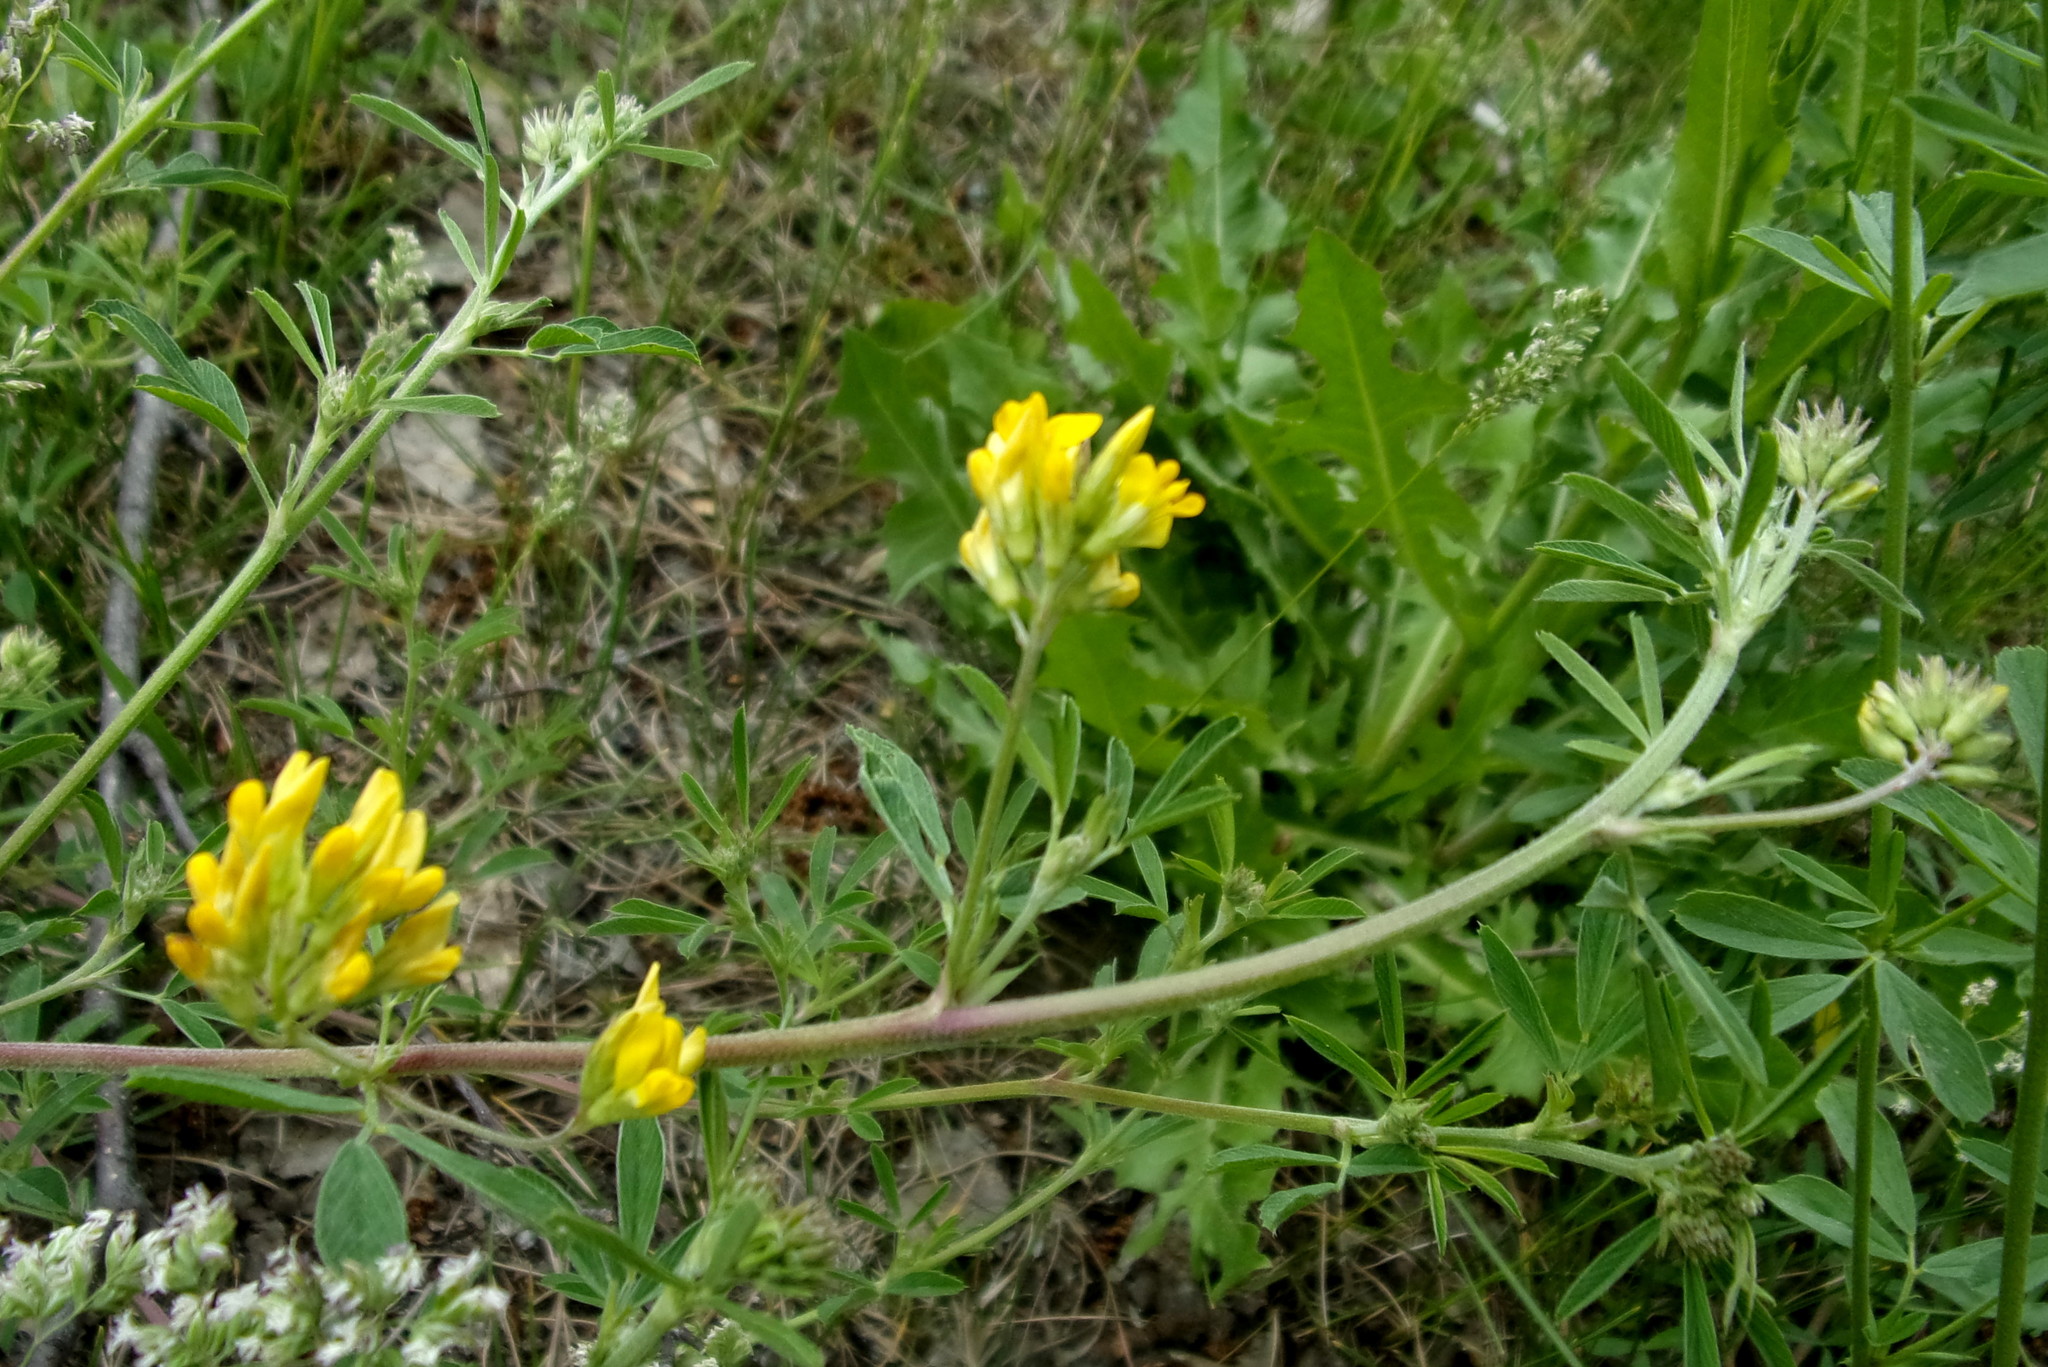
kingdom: Plantae
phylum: Tracheophyta
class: Magnoliopsida
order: Fabales
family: Fabaceae
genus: Medicago
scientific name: Medicago falcata
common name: Sickle medick
